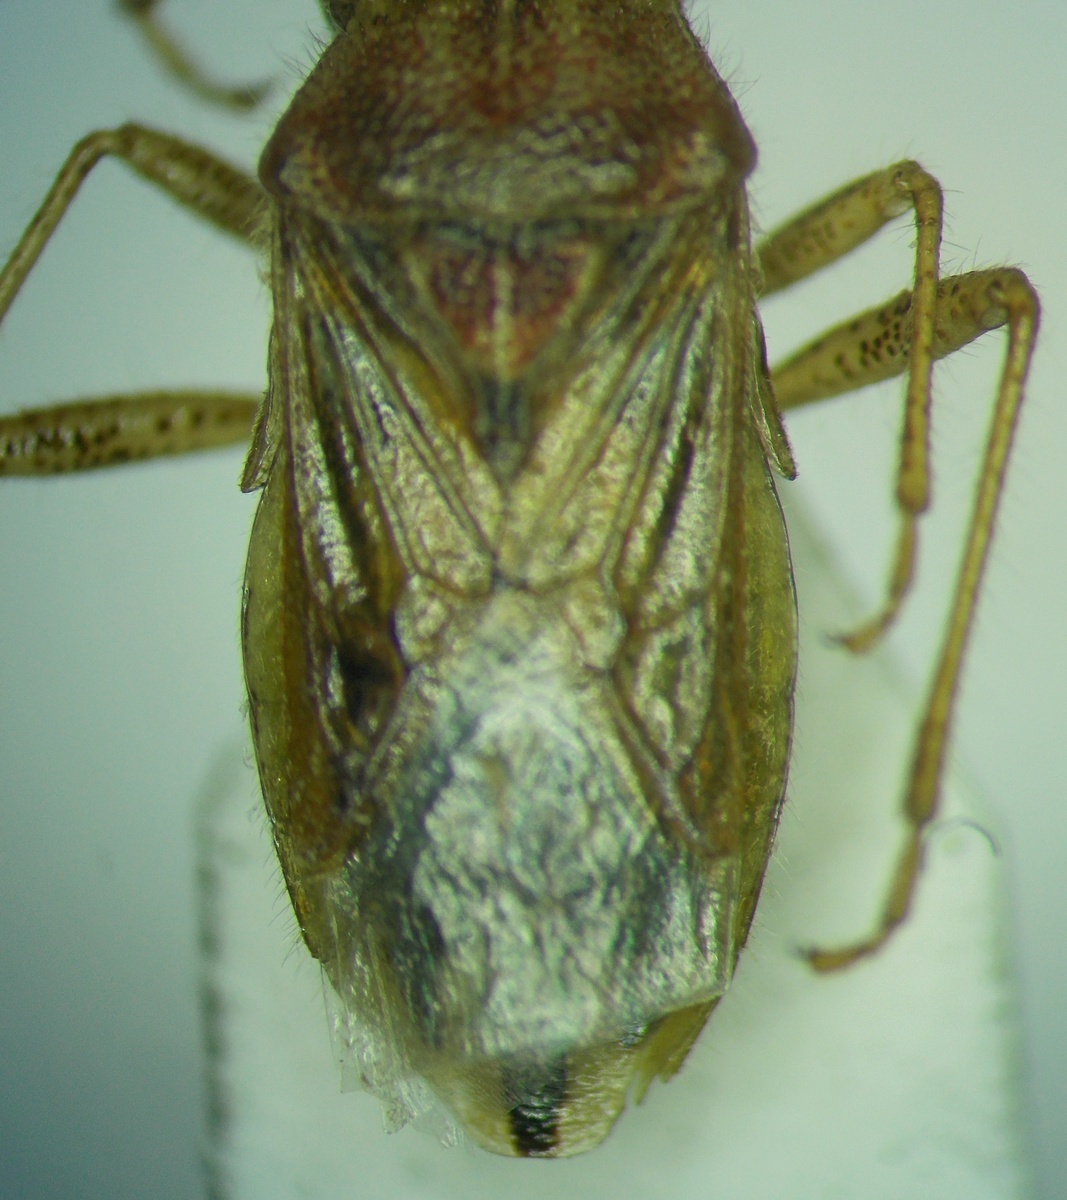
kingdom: Animalia
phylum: Arthropoda
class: Insecta
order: Hemiptera
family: Rhopalidae
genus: Rhopalus
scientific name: Rhopalus parumpunctatus
